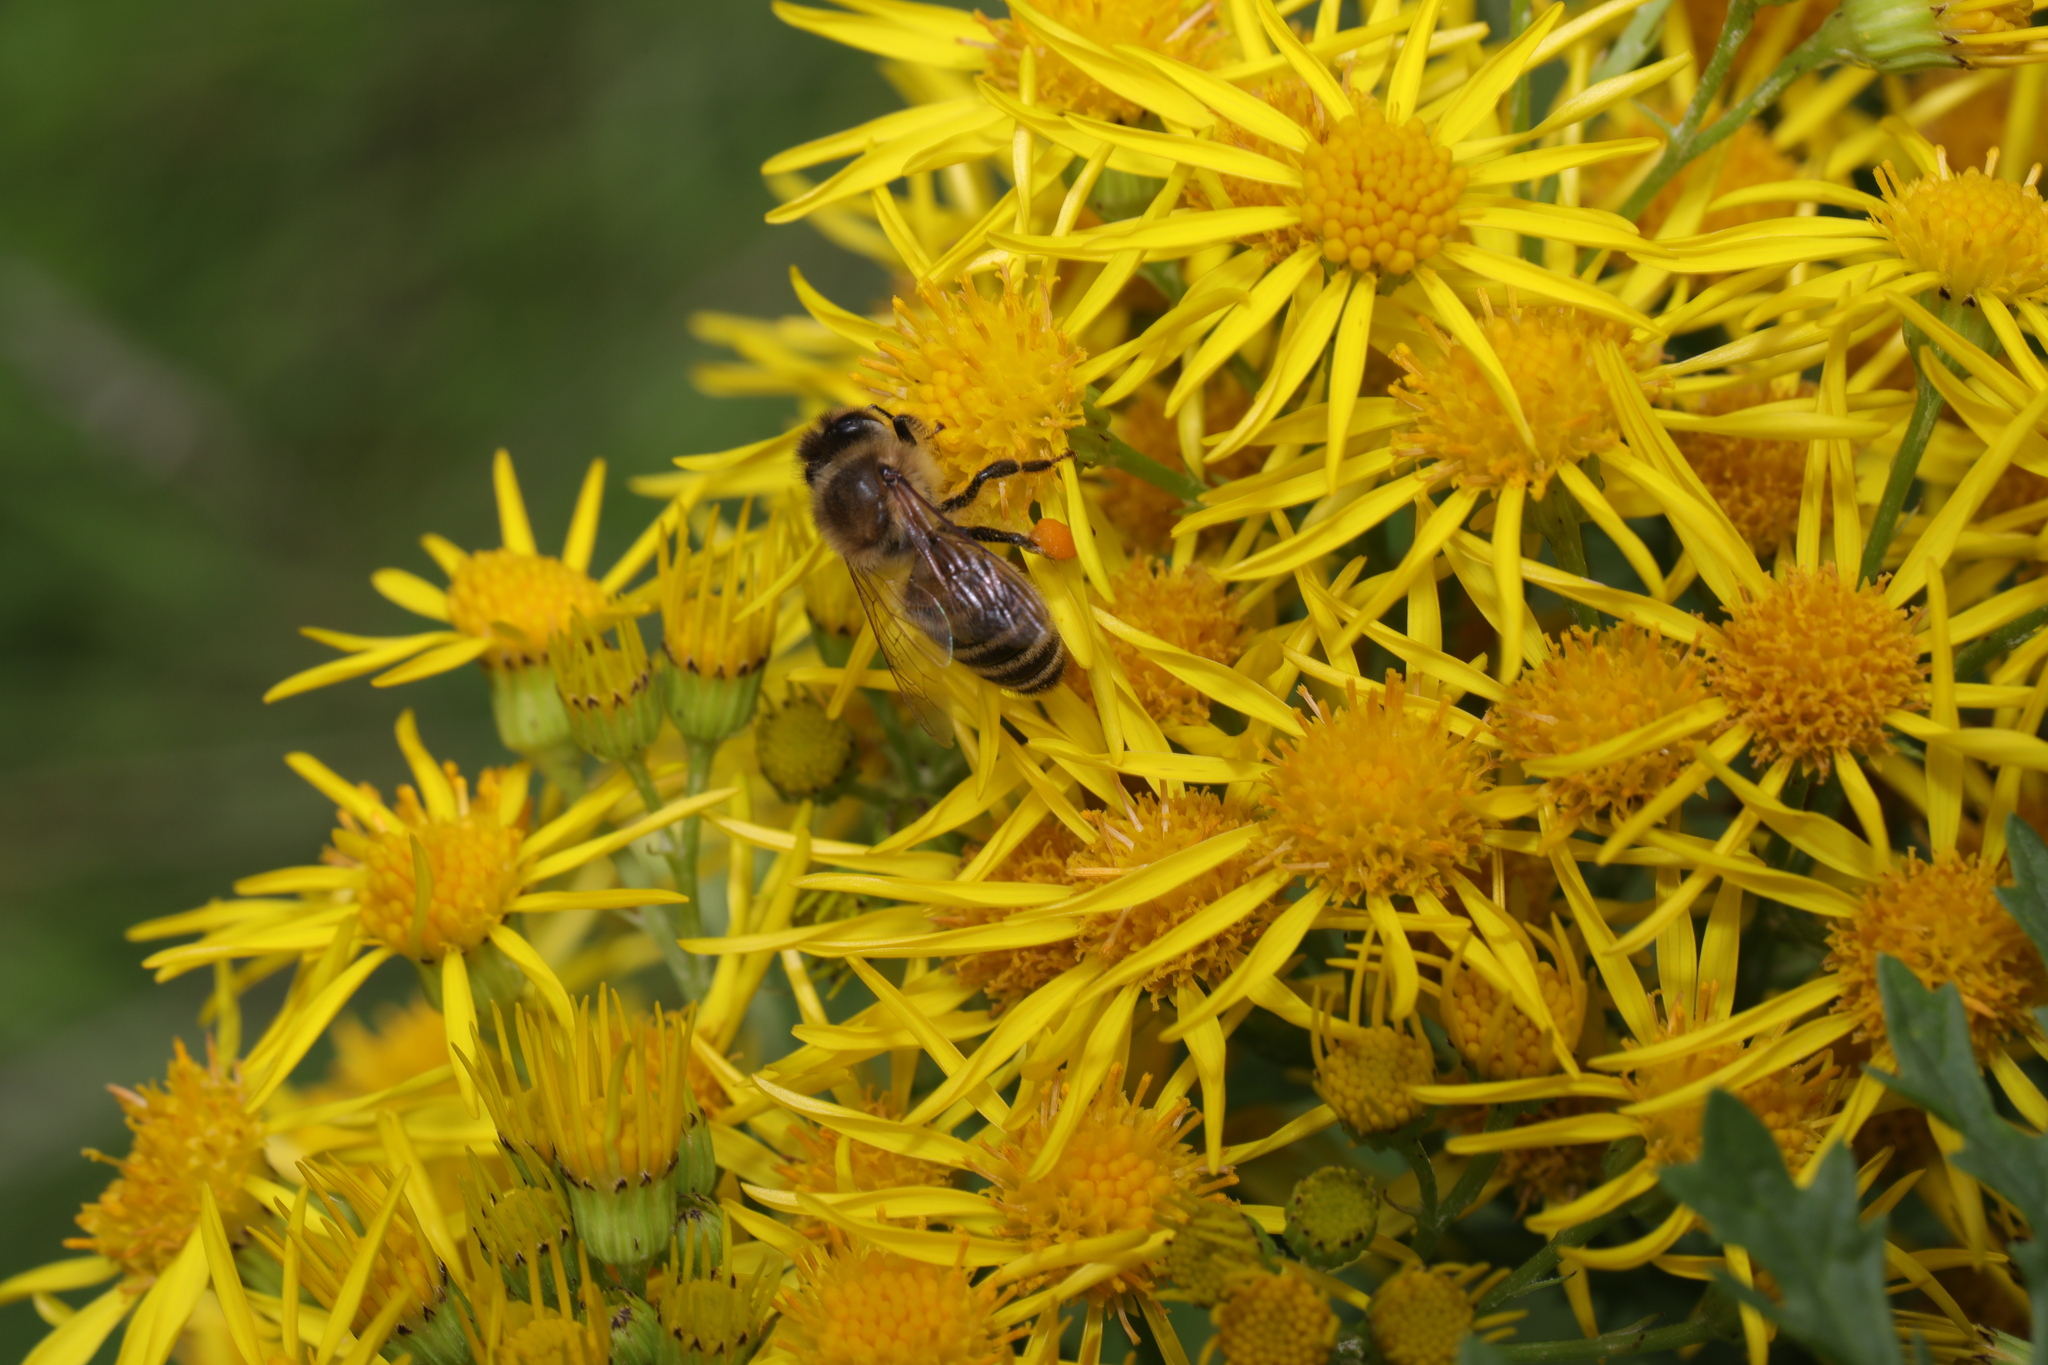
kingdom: Animalia
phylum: Arthropoda
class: Insecta
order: Hymenoptera
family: Apidae
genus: Apis
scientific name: Apis mellifera
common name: Honey bee
